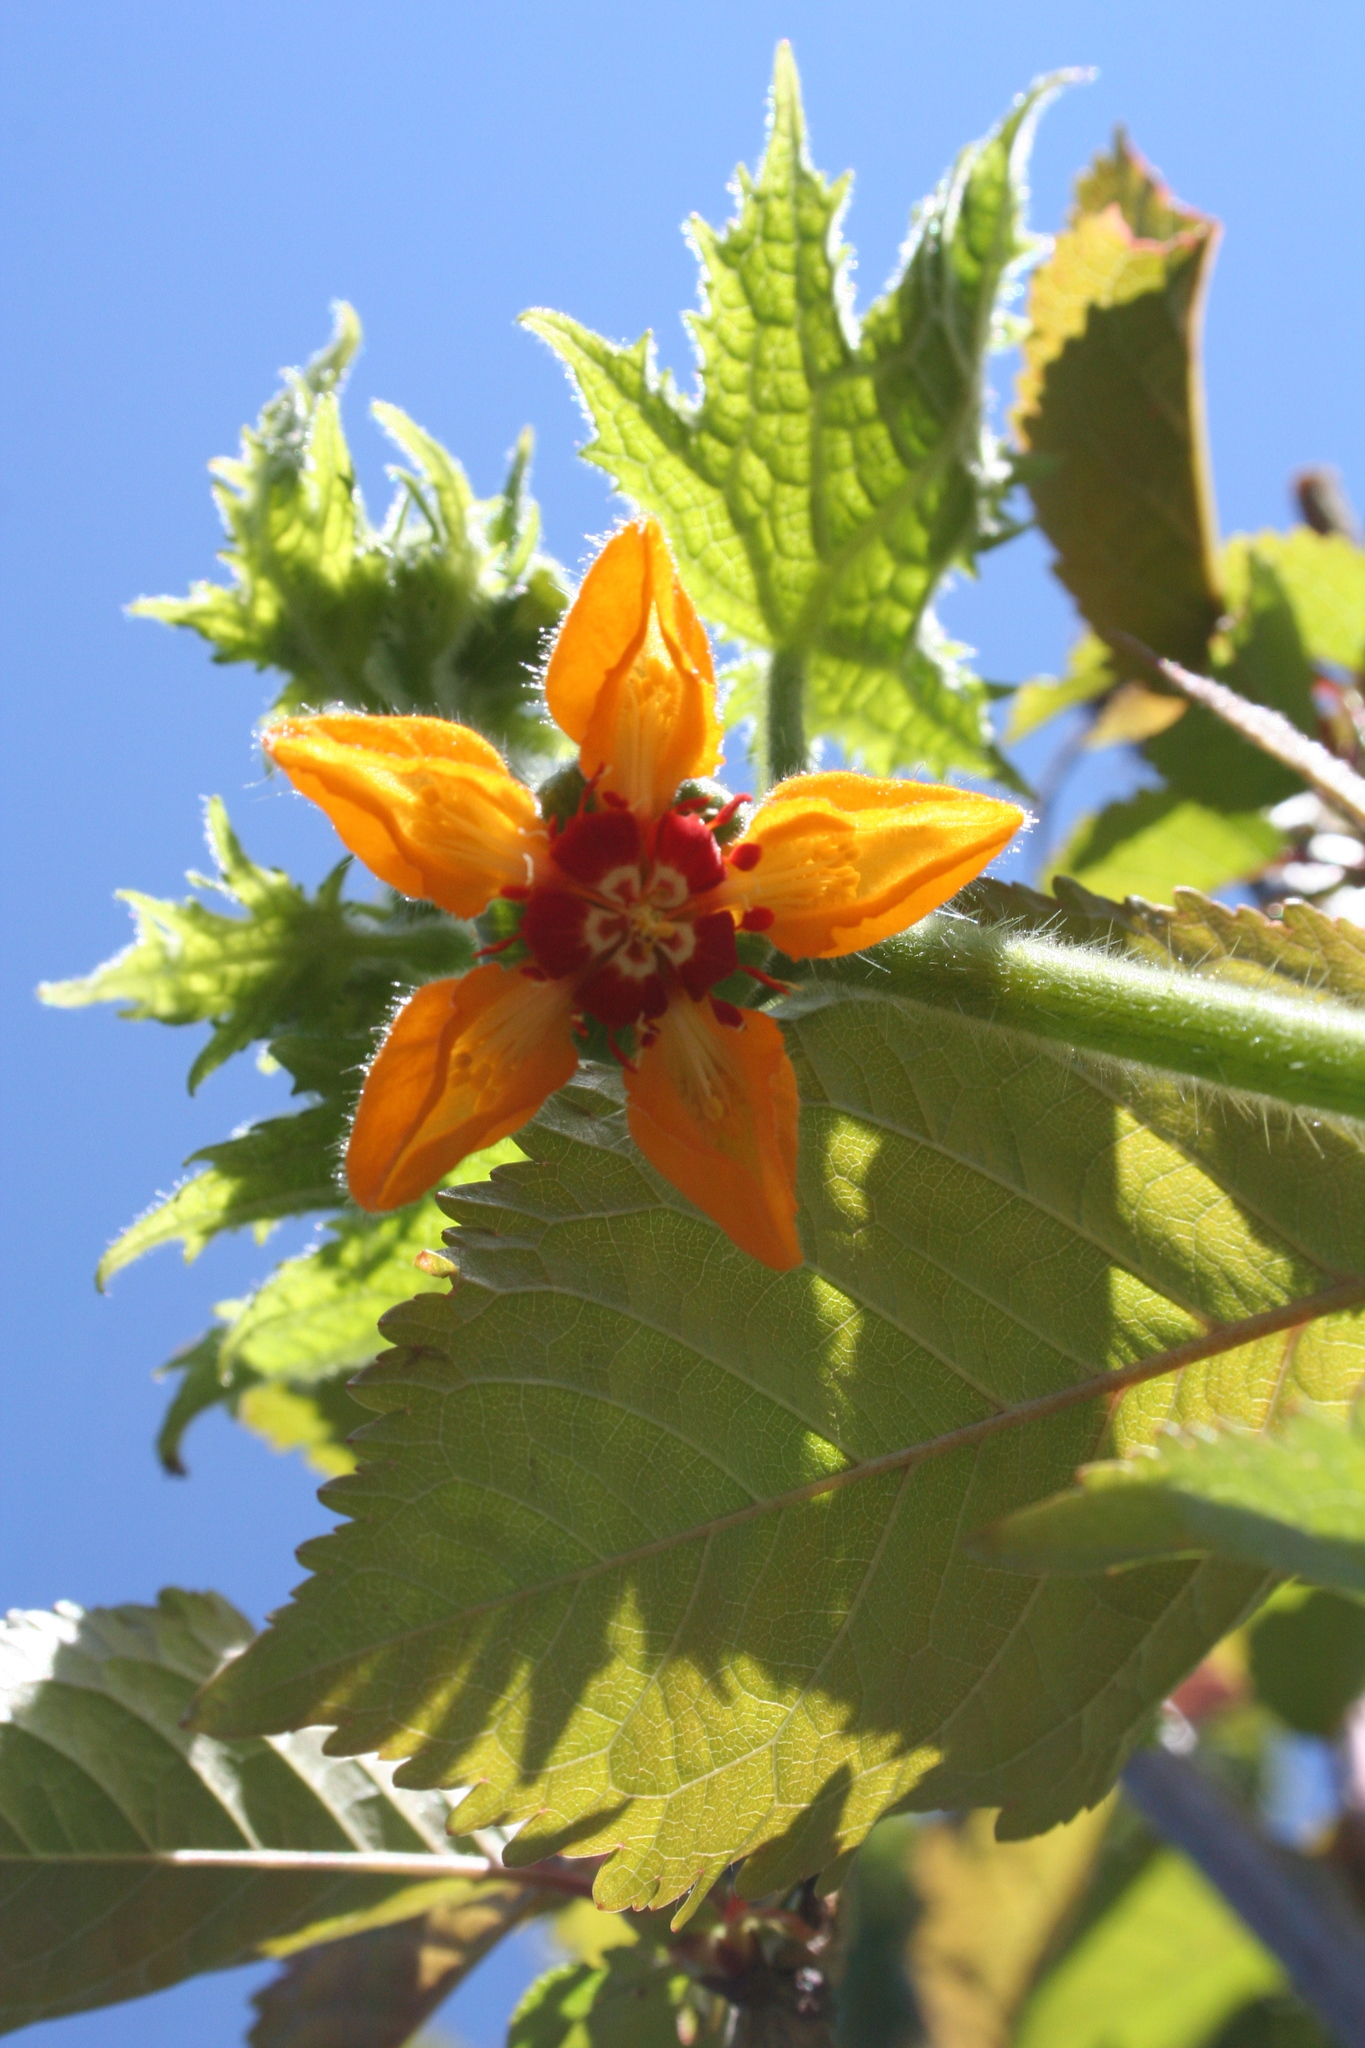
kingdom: Plantae
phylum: Tracheophyta
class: Magnoliopsida
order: Cornales
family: Loasaceae
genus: Loasa
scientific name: Loasa acerifolia
